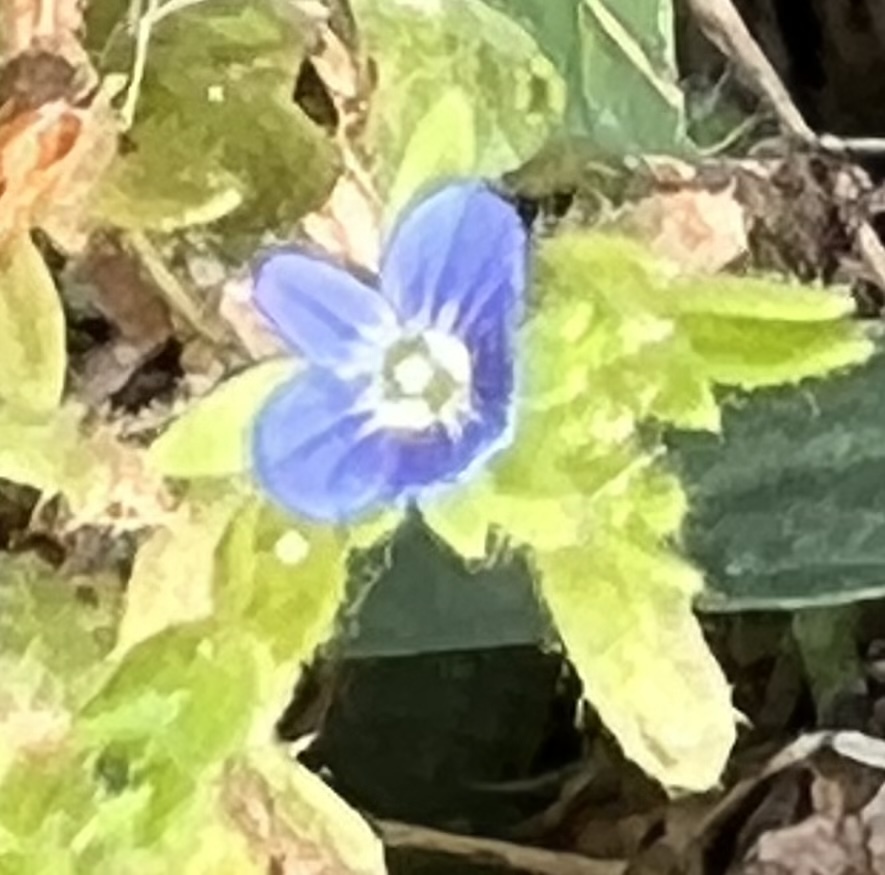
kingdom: Plantae
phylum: Tracheophyta
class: Magnoliopsida
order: Lamiales
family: Plantaginaceae
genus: Veronica
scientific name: Veronica arvensis
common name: Corn speedwell
